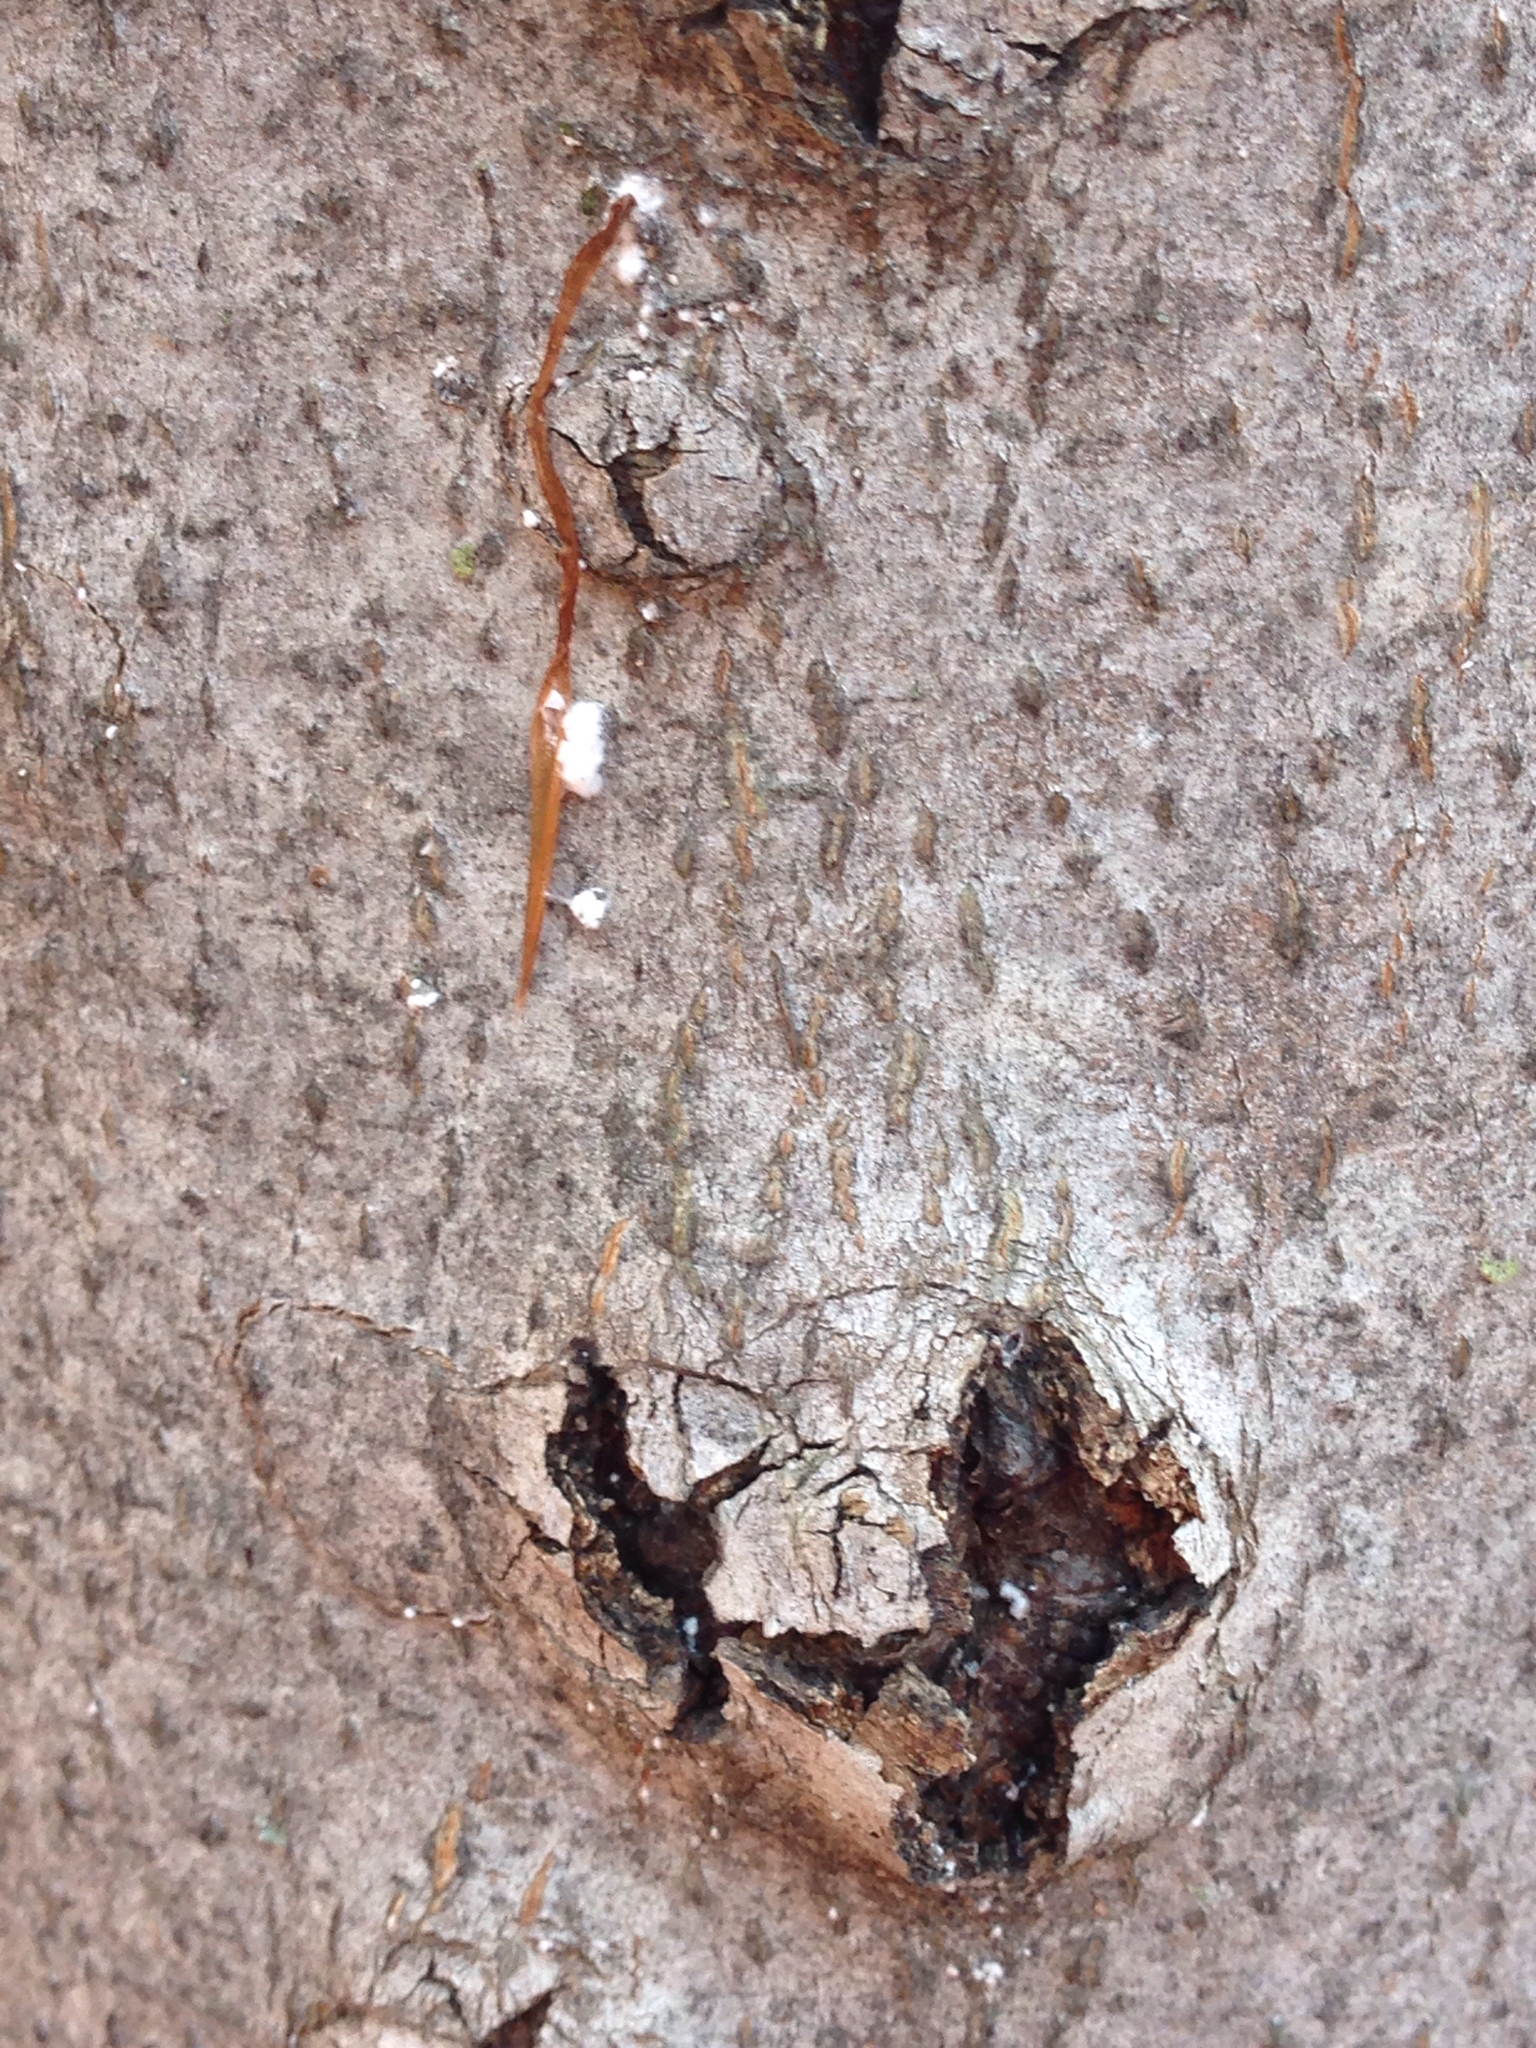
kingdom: Animalia
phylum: Arthropoda
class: Insecta
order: Hemiptera
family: Eriococcidae
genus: Cryptococcus
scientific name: Cryptococcus fagisuga
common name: Beech scale
